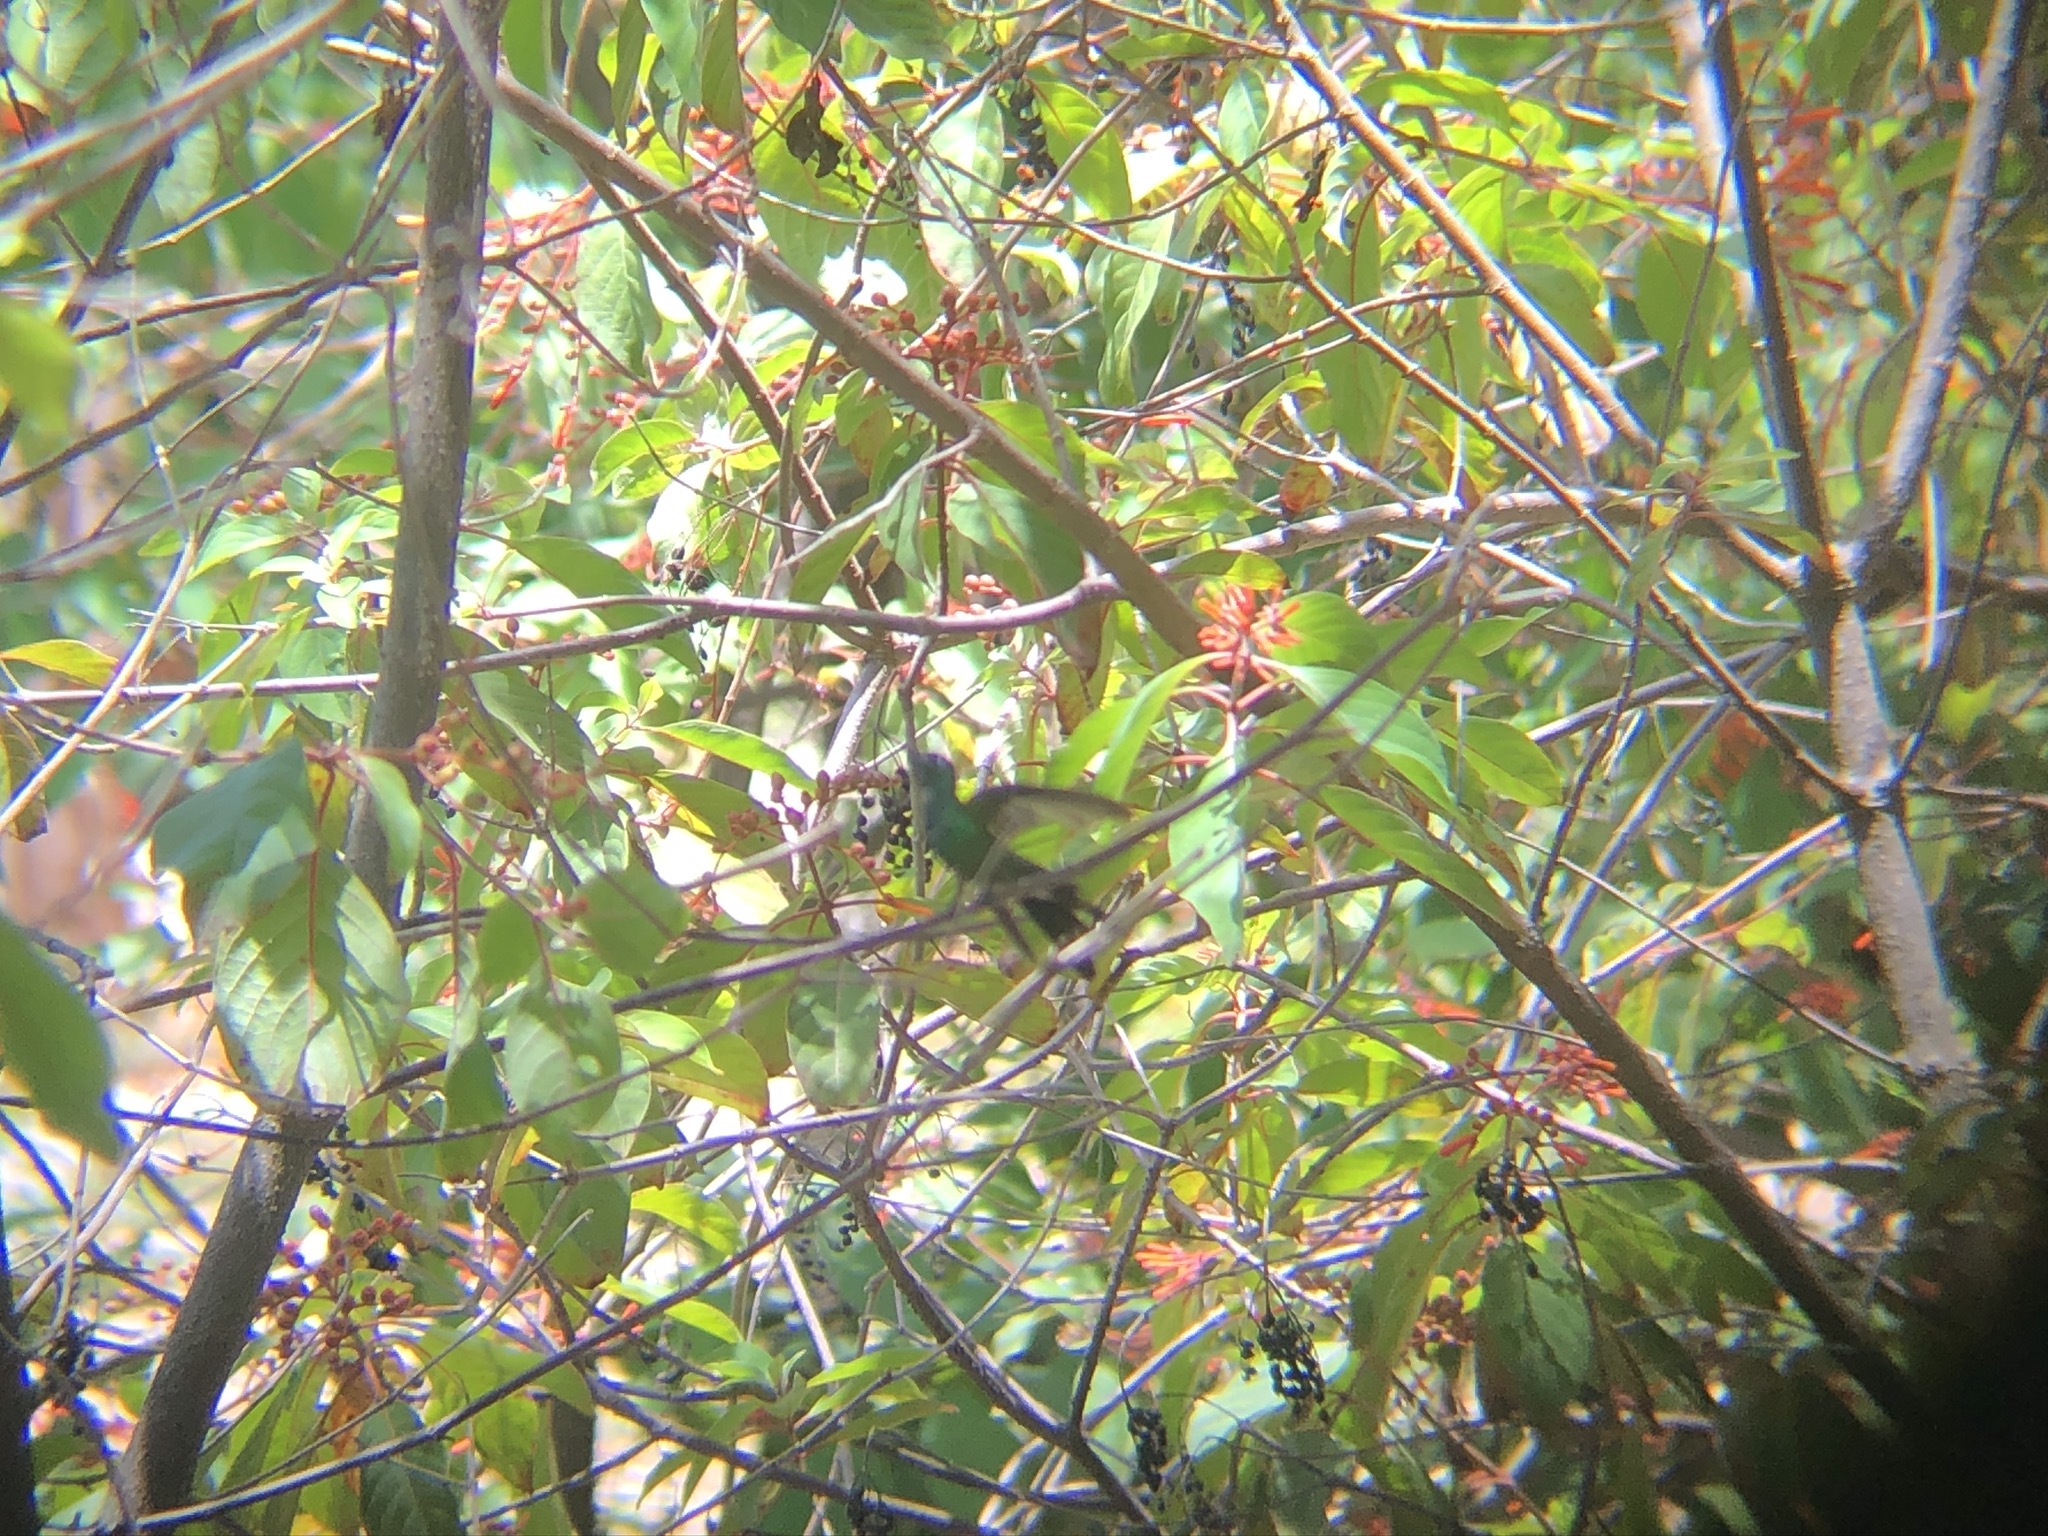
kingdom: Animalia
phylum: Chordata
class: Aves
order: Apodiformes
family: Trochilidae
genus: Riccordia
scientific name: Riccordia ricordii
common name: Cuban emerald
